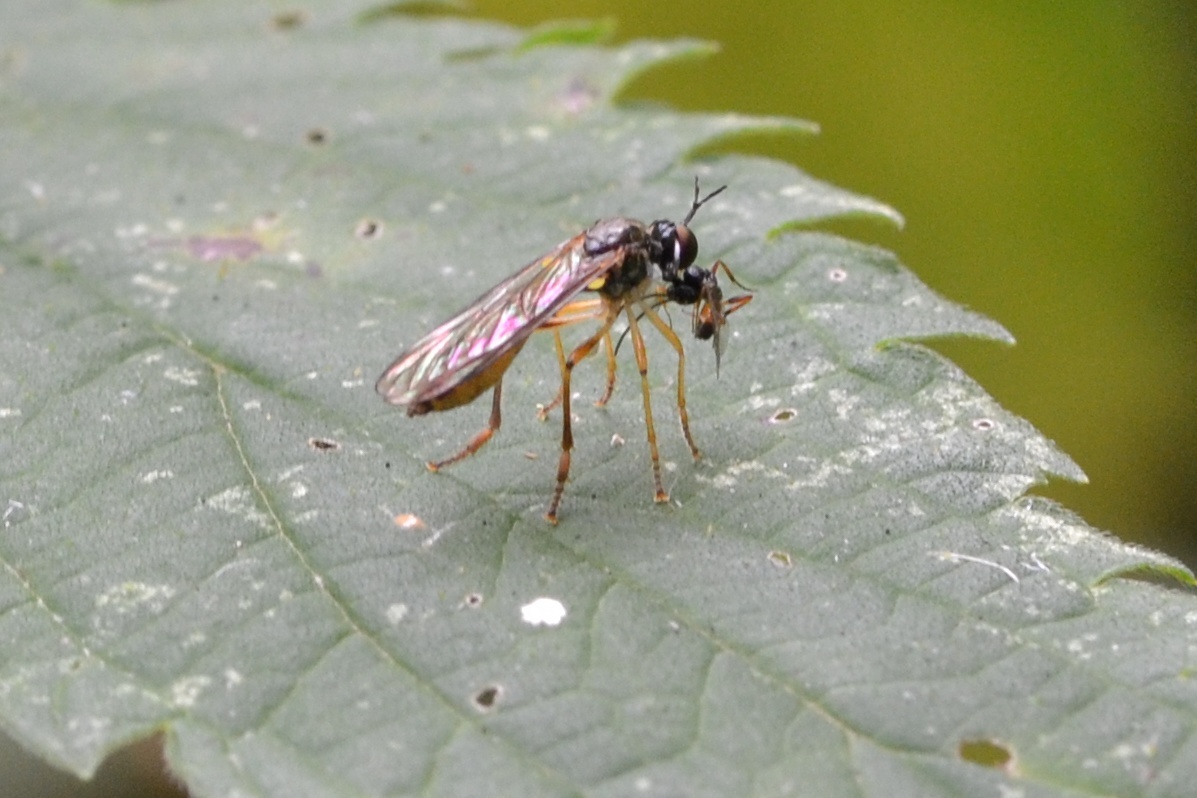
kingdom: Animalia
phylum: Arthropoda
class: Insecta
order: Diptera
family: Asilidae
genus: Dioctria
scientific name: Dioctria linearis
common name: Small yellow-legged robberfly
